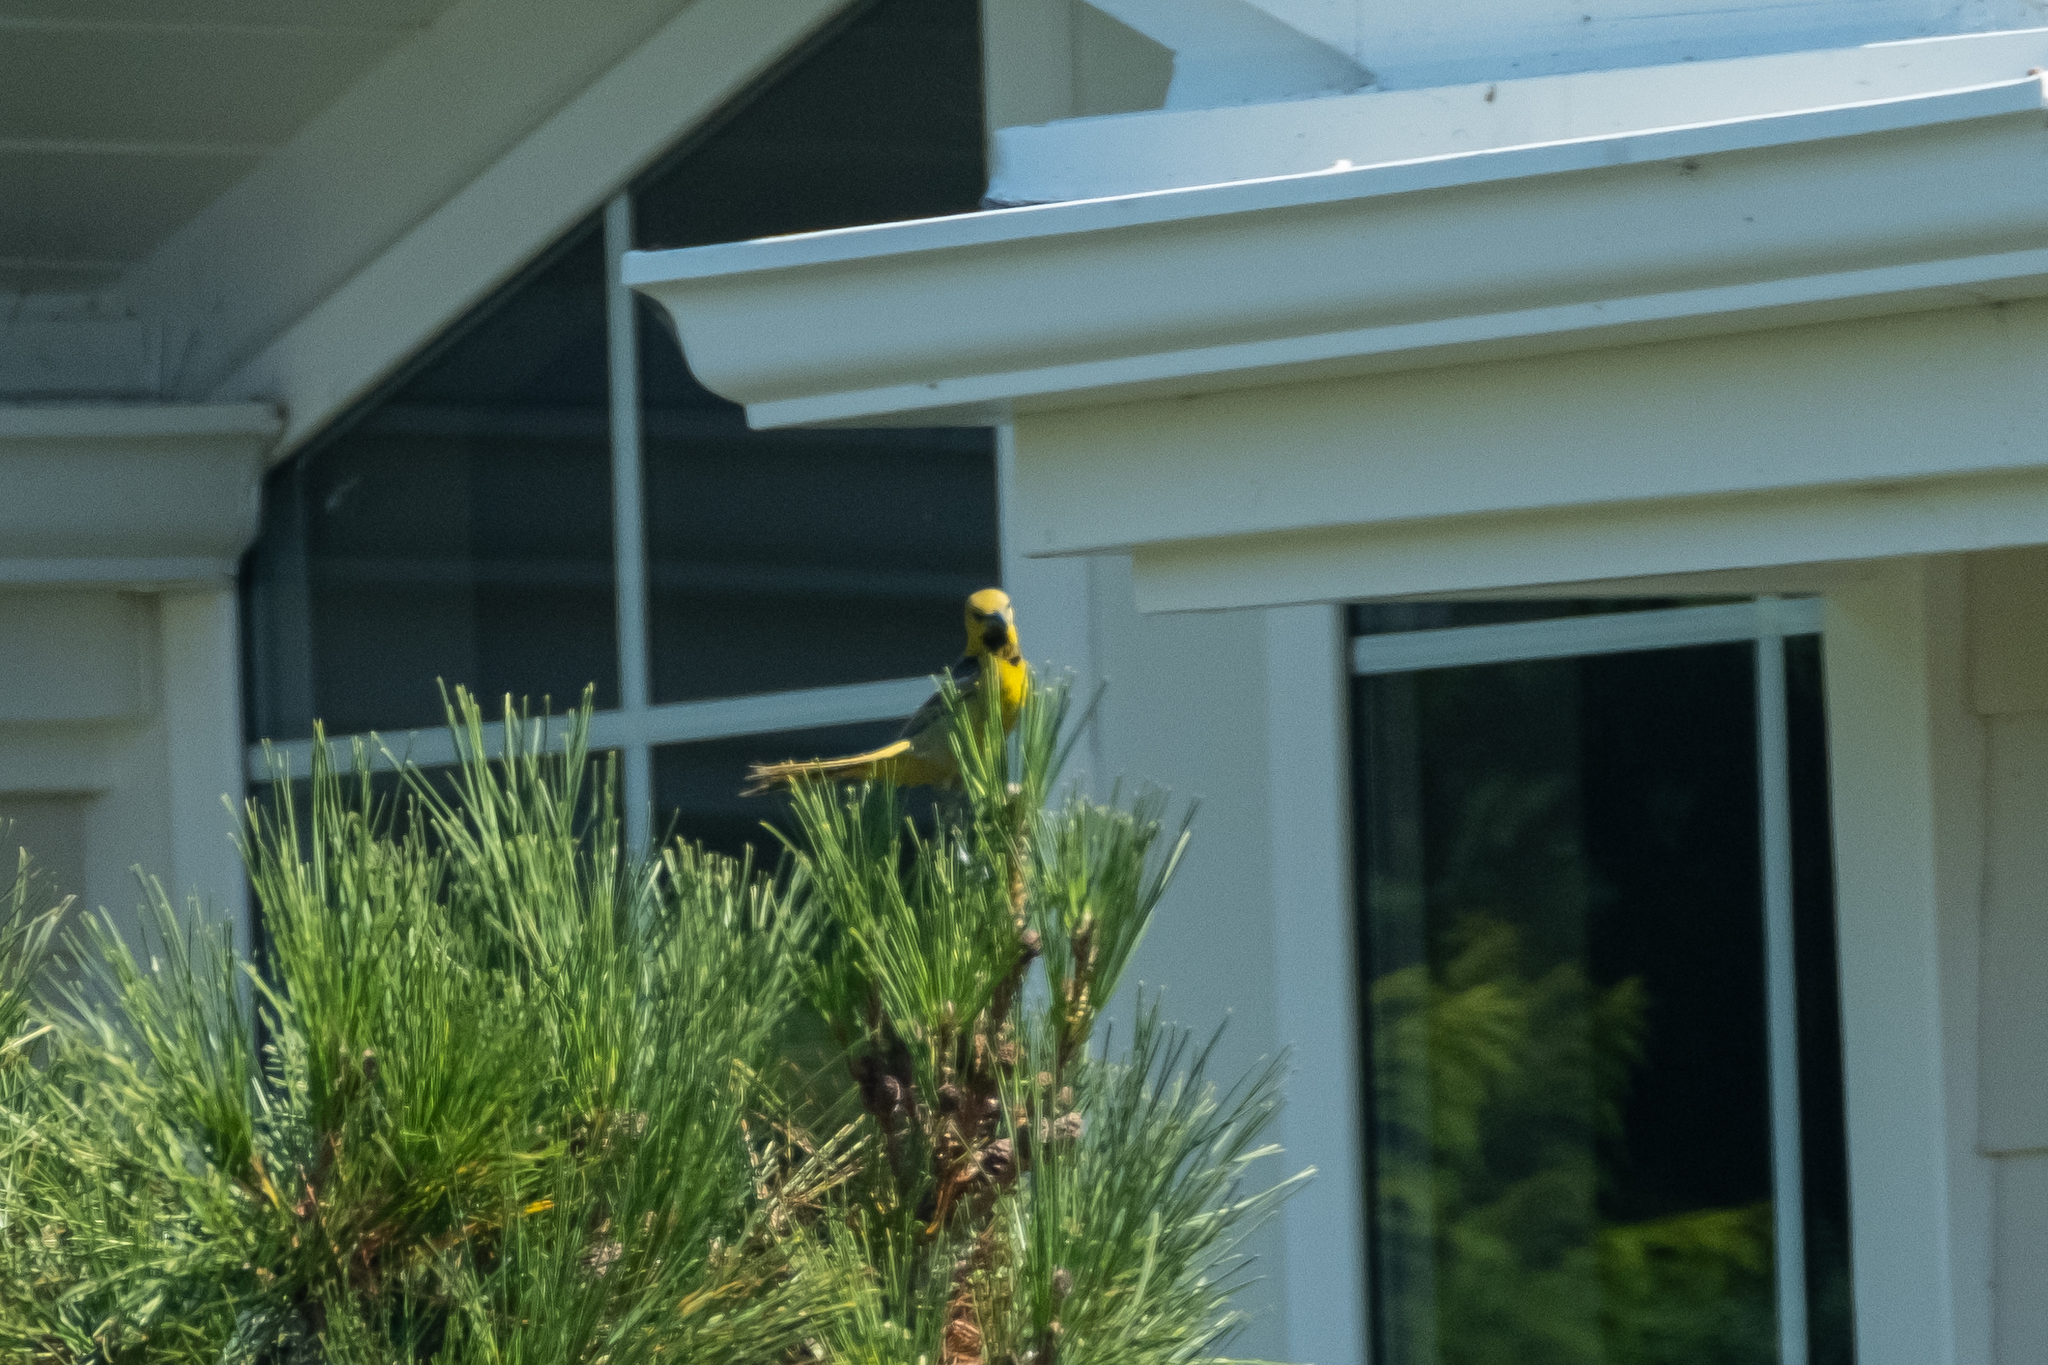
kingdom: Animalia
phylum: Chordata
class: Aves
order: Passeriformes
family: Icteridae
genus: Icterus
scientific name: Icterus cucullatus
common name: Hooded oriole
